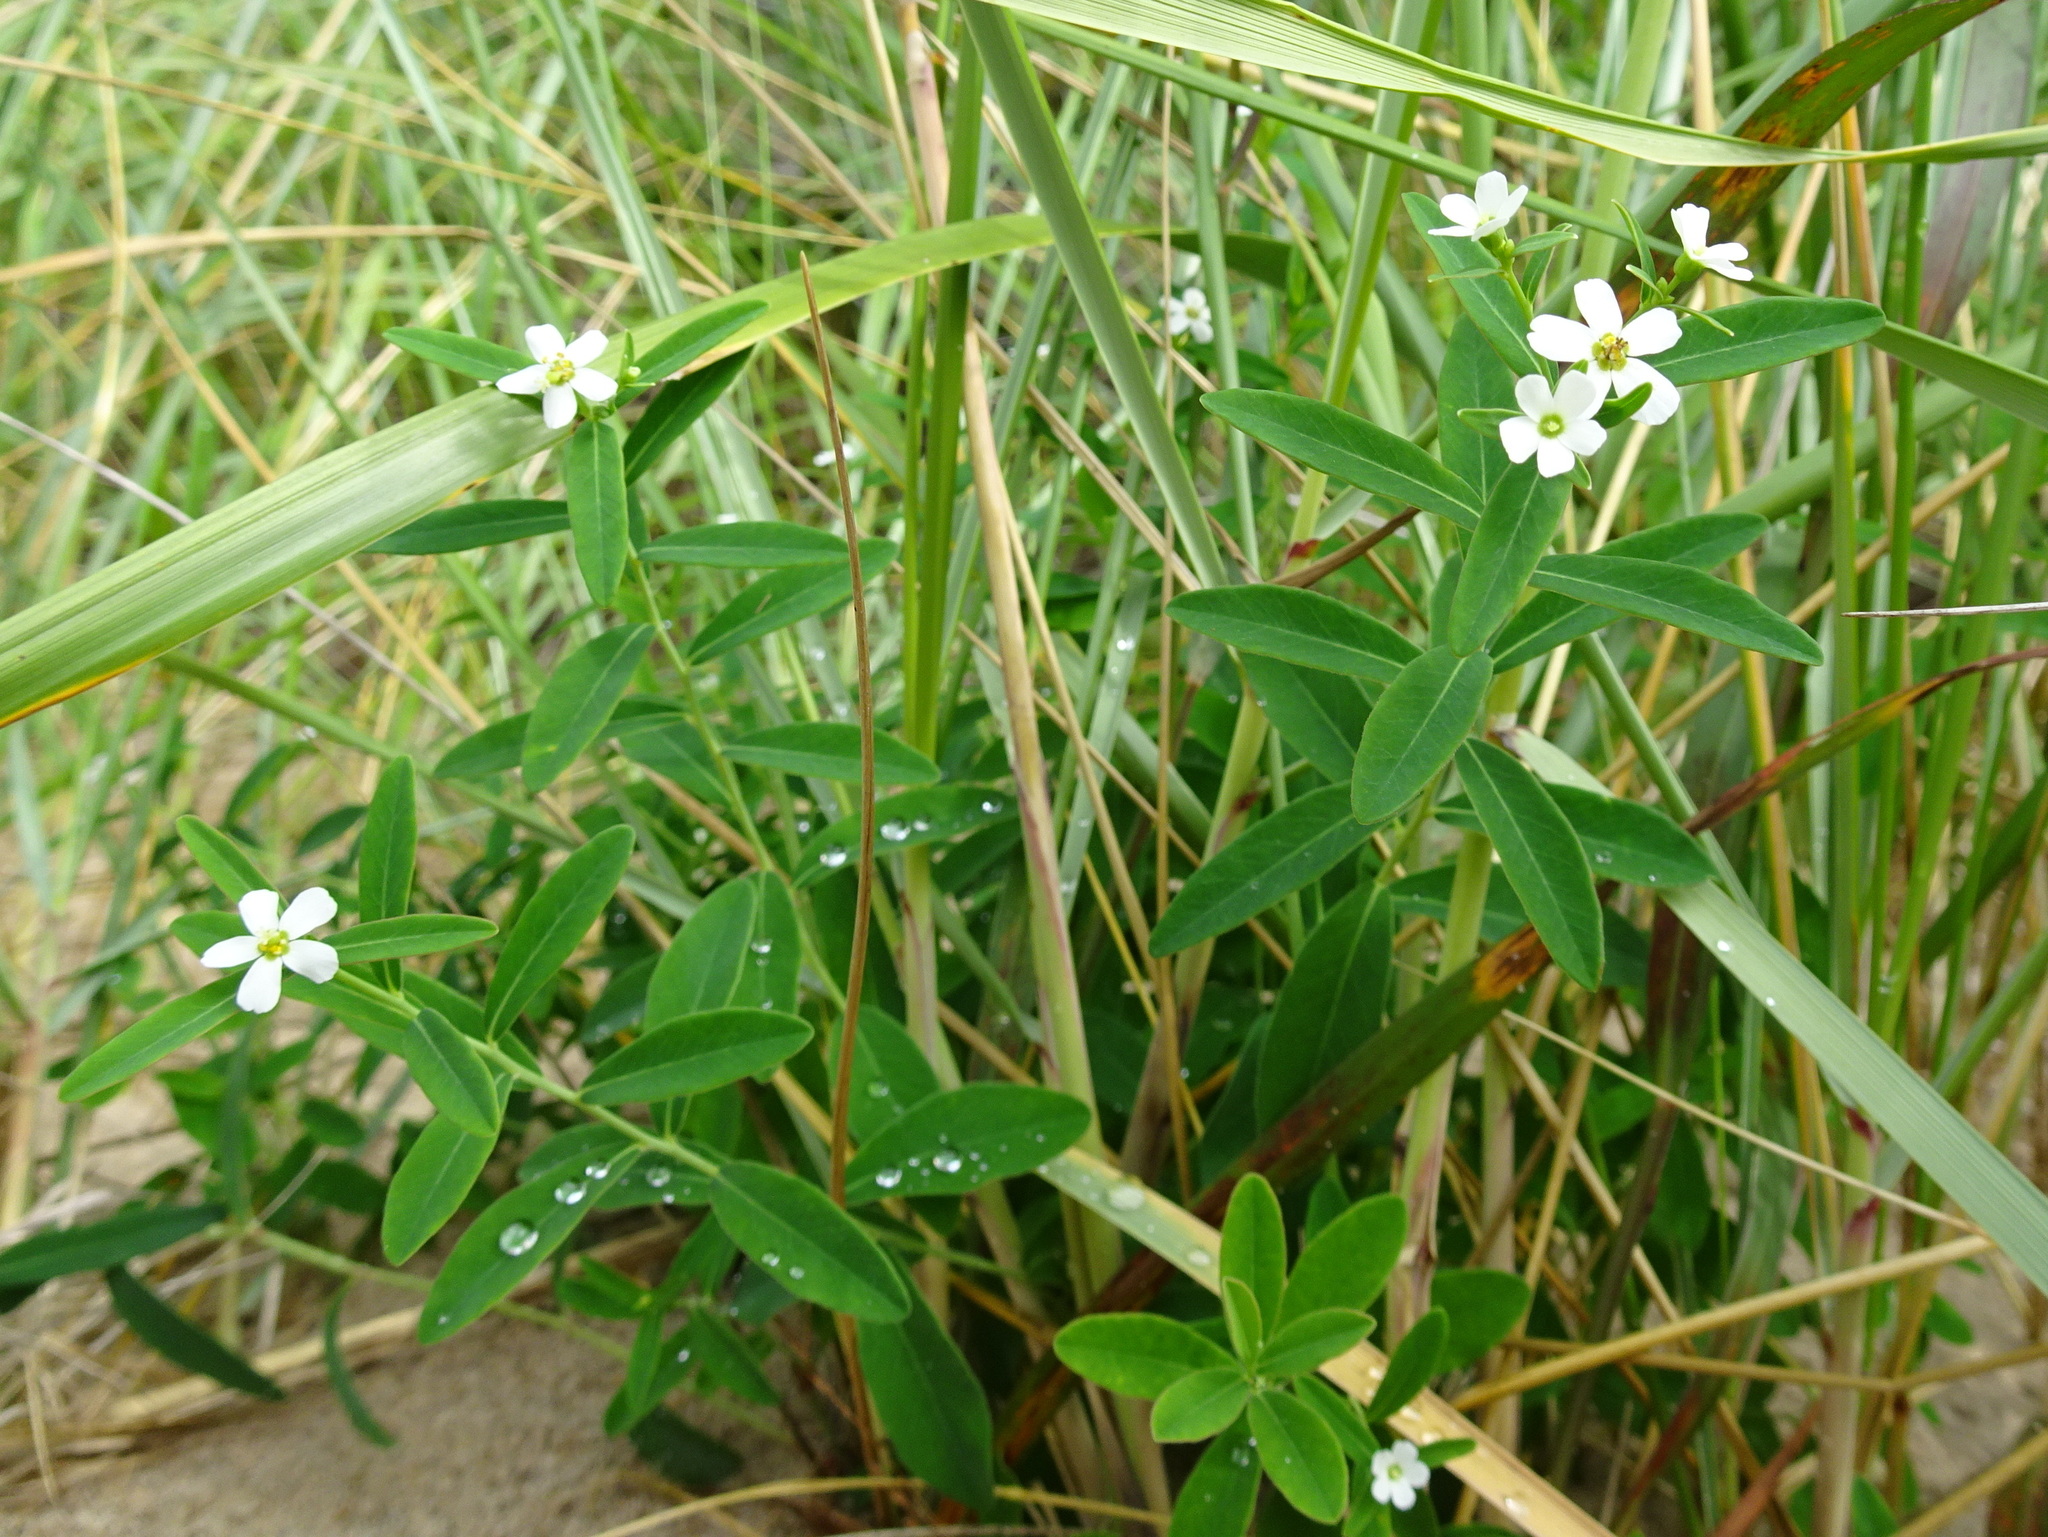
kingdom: Plantae
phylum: Tracheophyta
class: Magnoliopsida
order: Malpighiales
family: Euphorbiaceae
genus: Euphorbia
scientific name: Euphorbia corollata
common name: Flowering spurge
